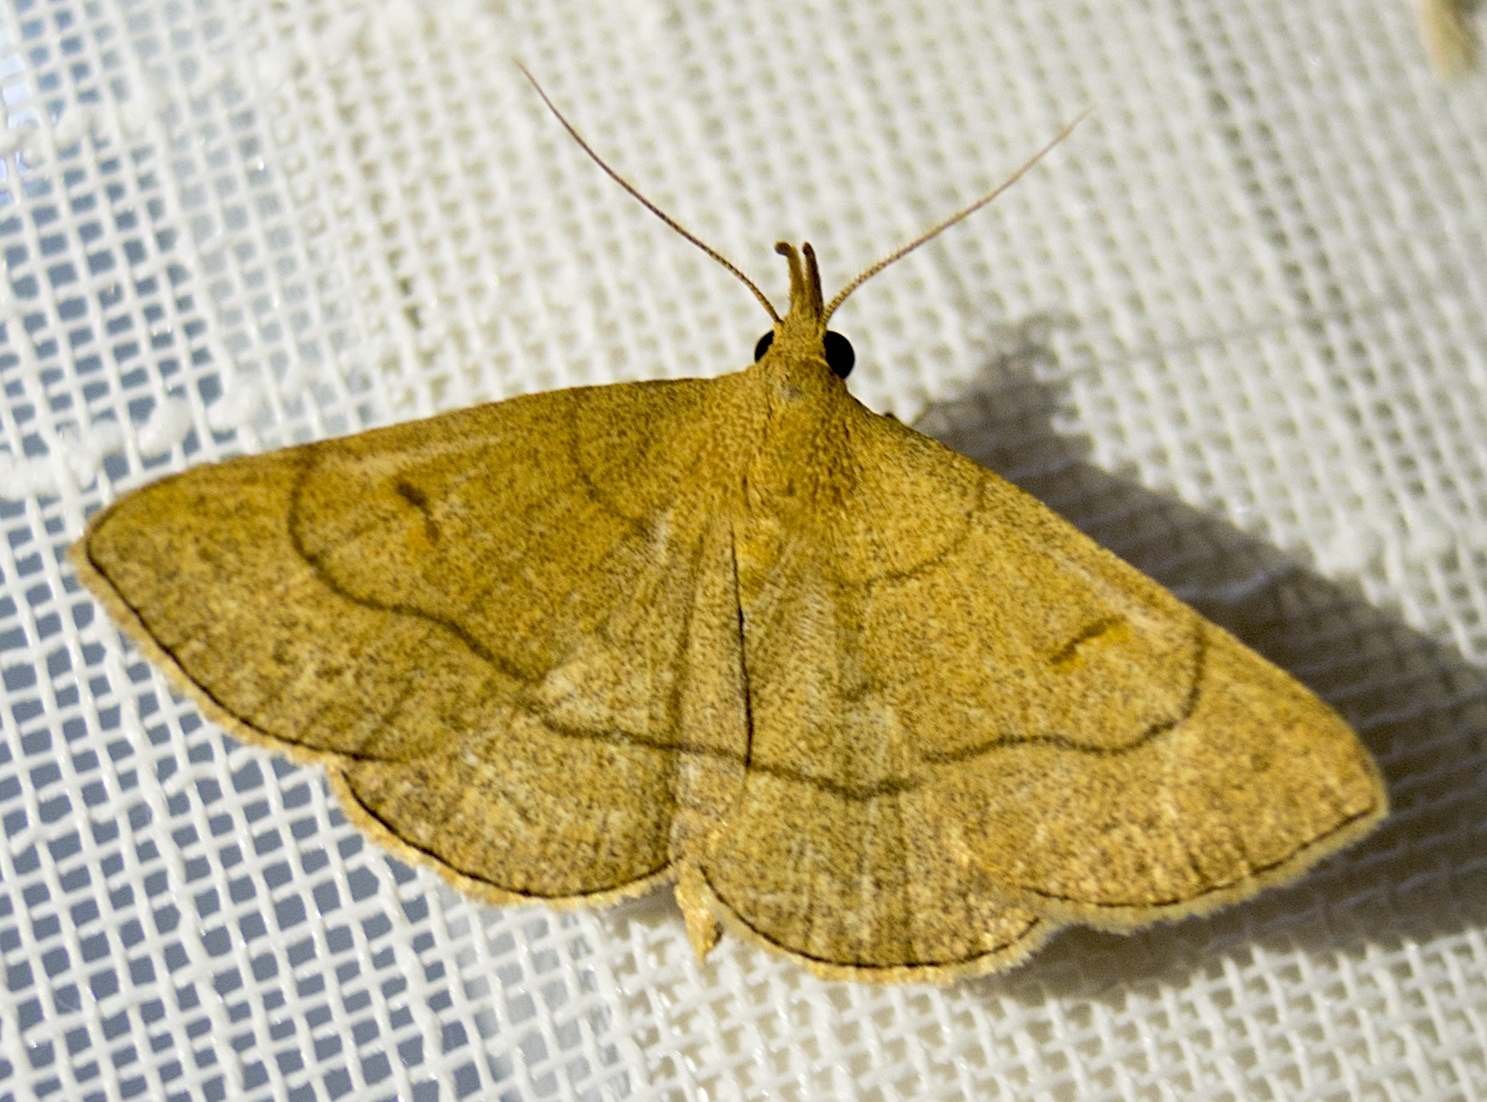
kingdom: Animalia
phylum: Arthropoda
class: Insecta
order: Lepidoptera
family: Erebidae
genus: Paracolax
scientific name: Paracolax tristalis
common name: Clay fan-foot
